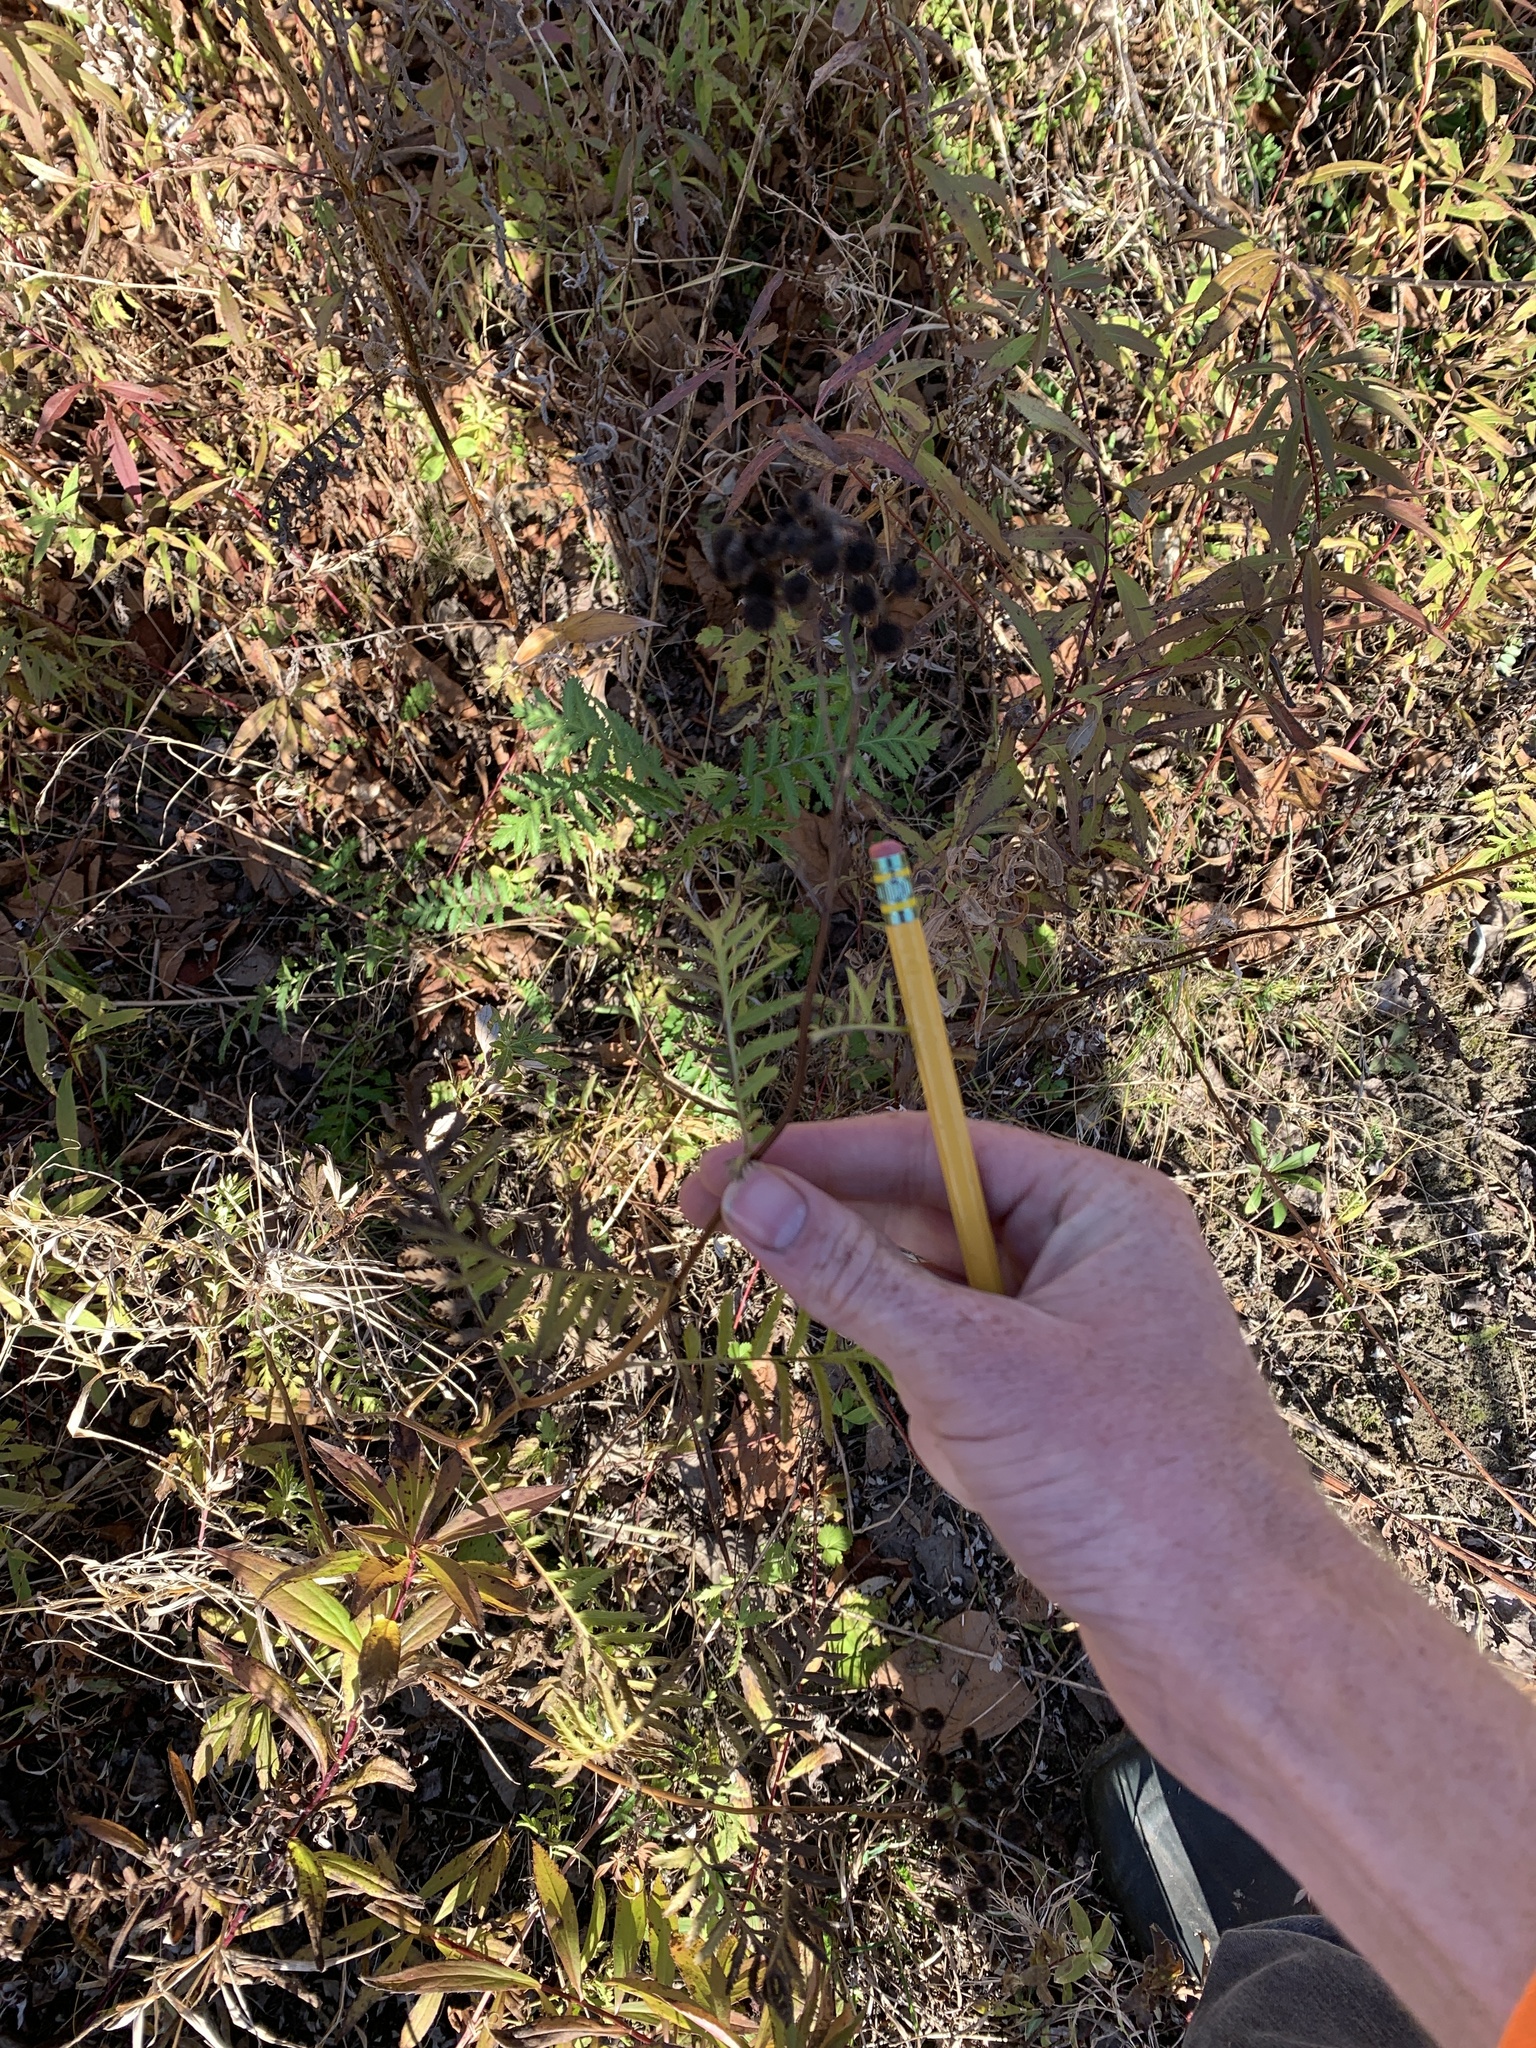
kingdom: Plantae
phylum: Tracheophyta
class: Magnoliopsida
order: Asterales
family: Asteraceae
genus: Tanacetum
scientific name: Tanacetum vulgare
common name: Common tansy
